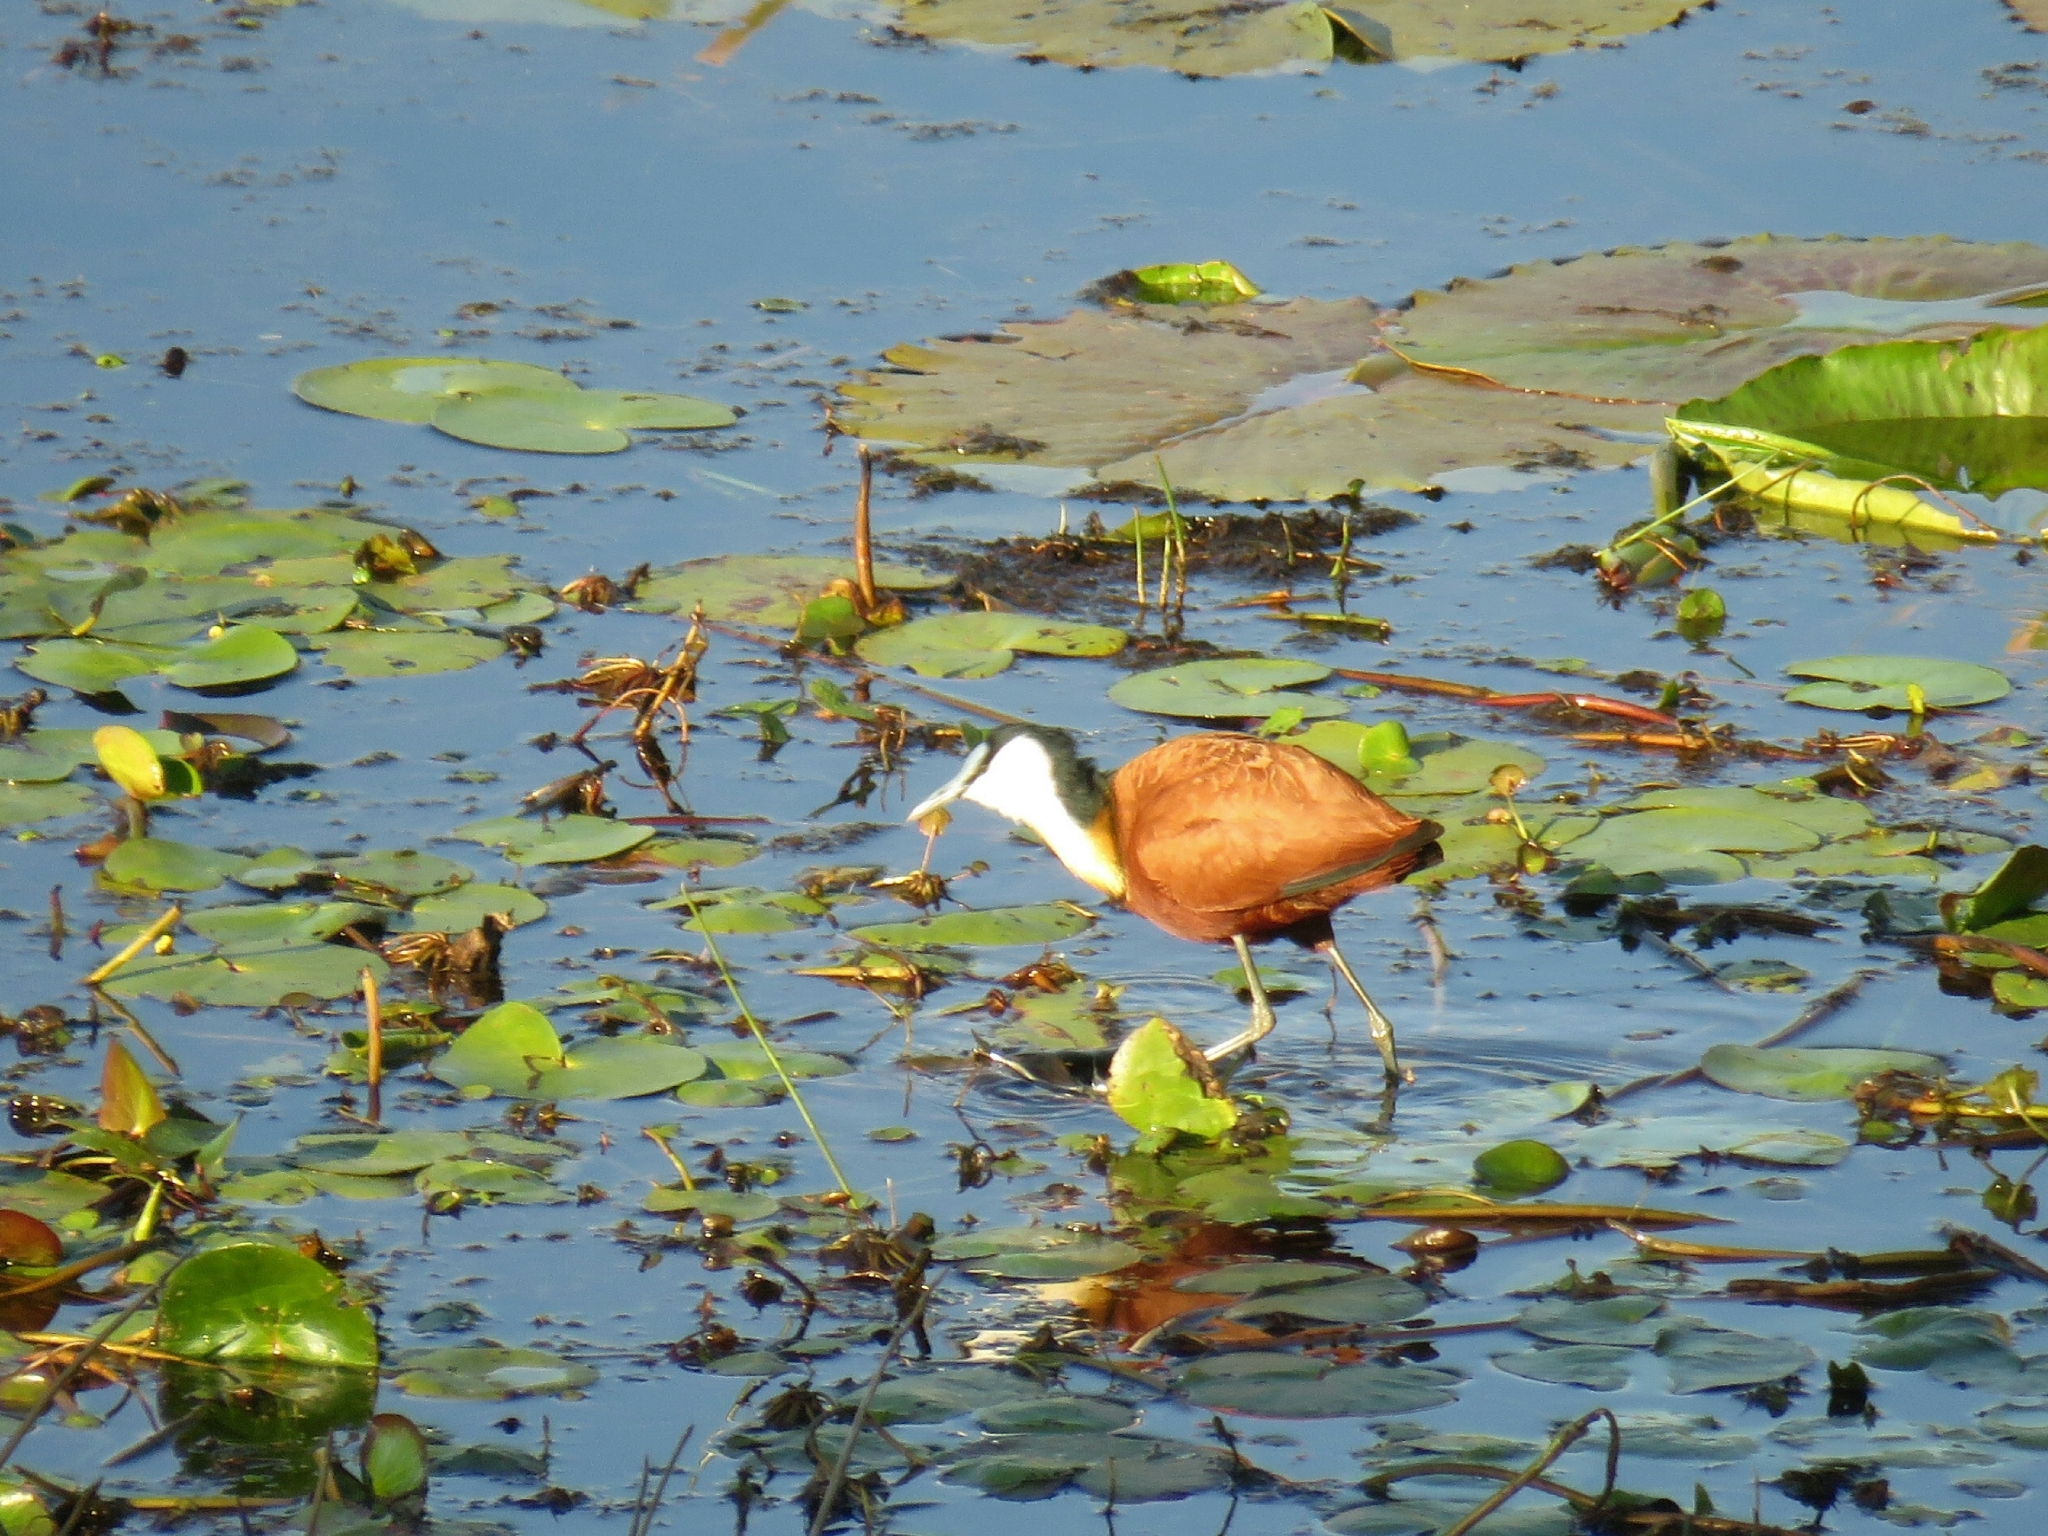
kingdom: Animalia
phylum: Chordata
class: Aves
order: Charadriiformes
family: Jacanidae
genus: Actophilornis
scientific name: Actophilornis africanus
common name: African jacana
